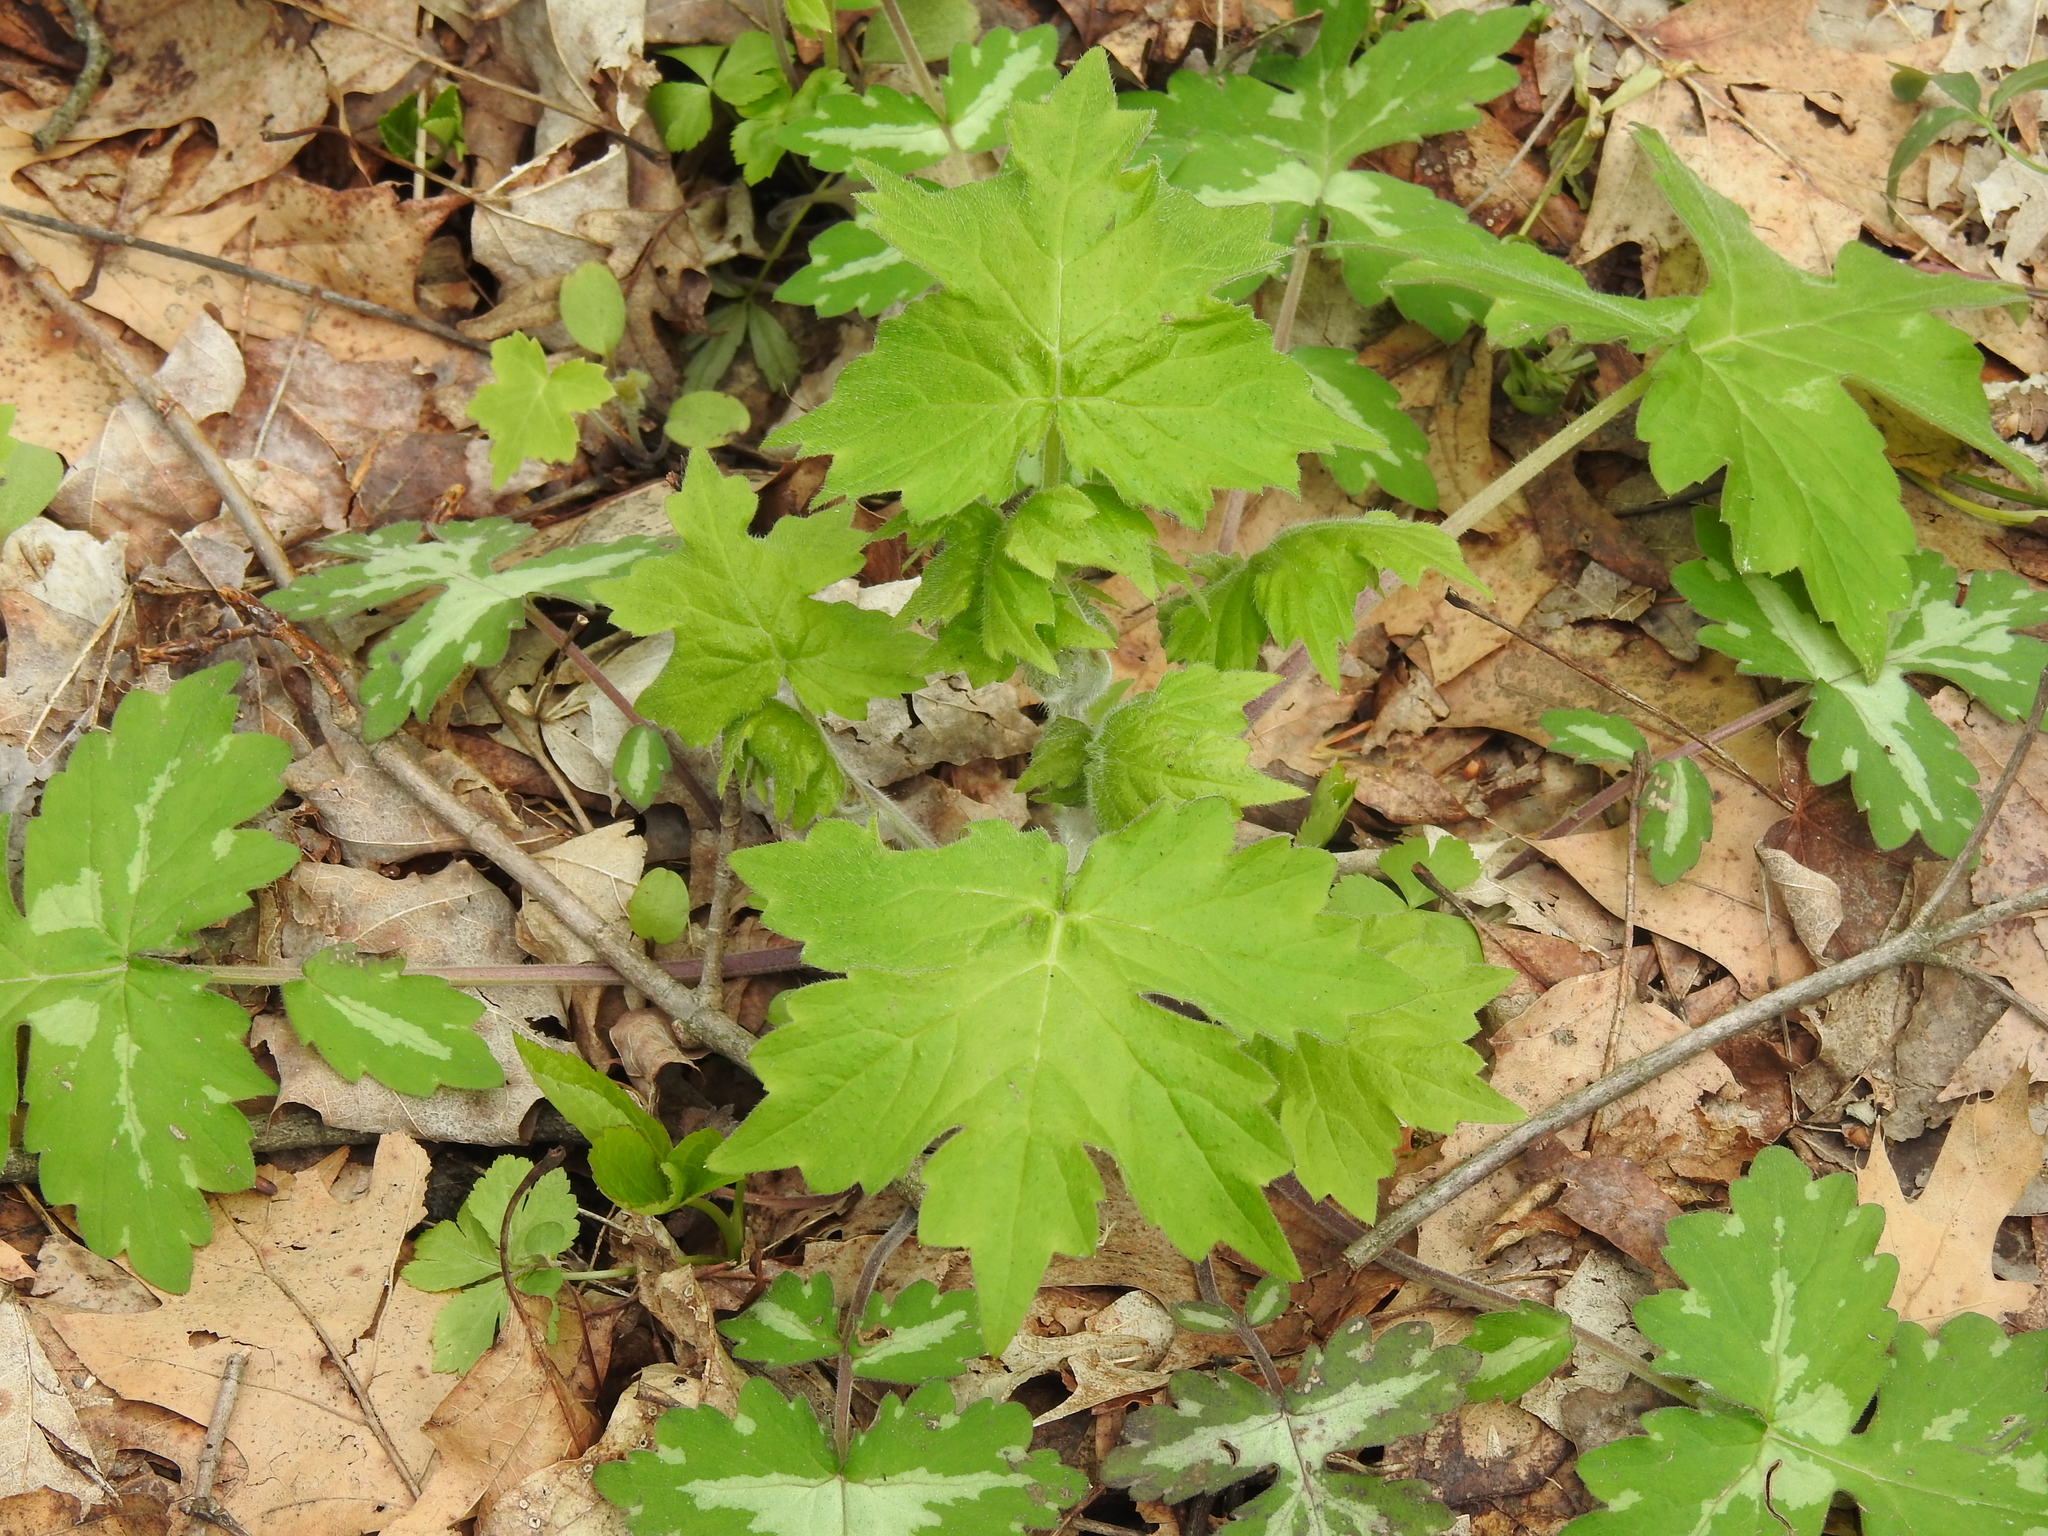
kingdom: Plantae
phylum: Tracheophyta
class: Magnoliopsida
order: Boraginales
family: Hydrophyllaceae
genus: Hydrophyllum
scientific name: Hydrophyllum appendiculatum
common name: Appendaged waterleaf
